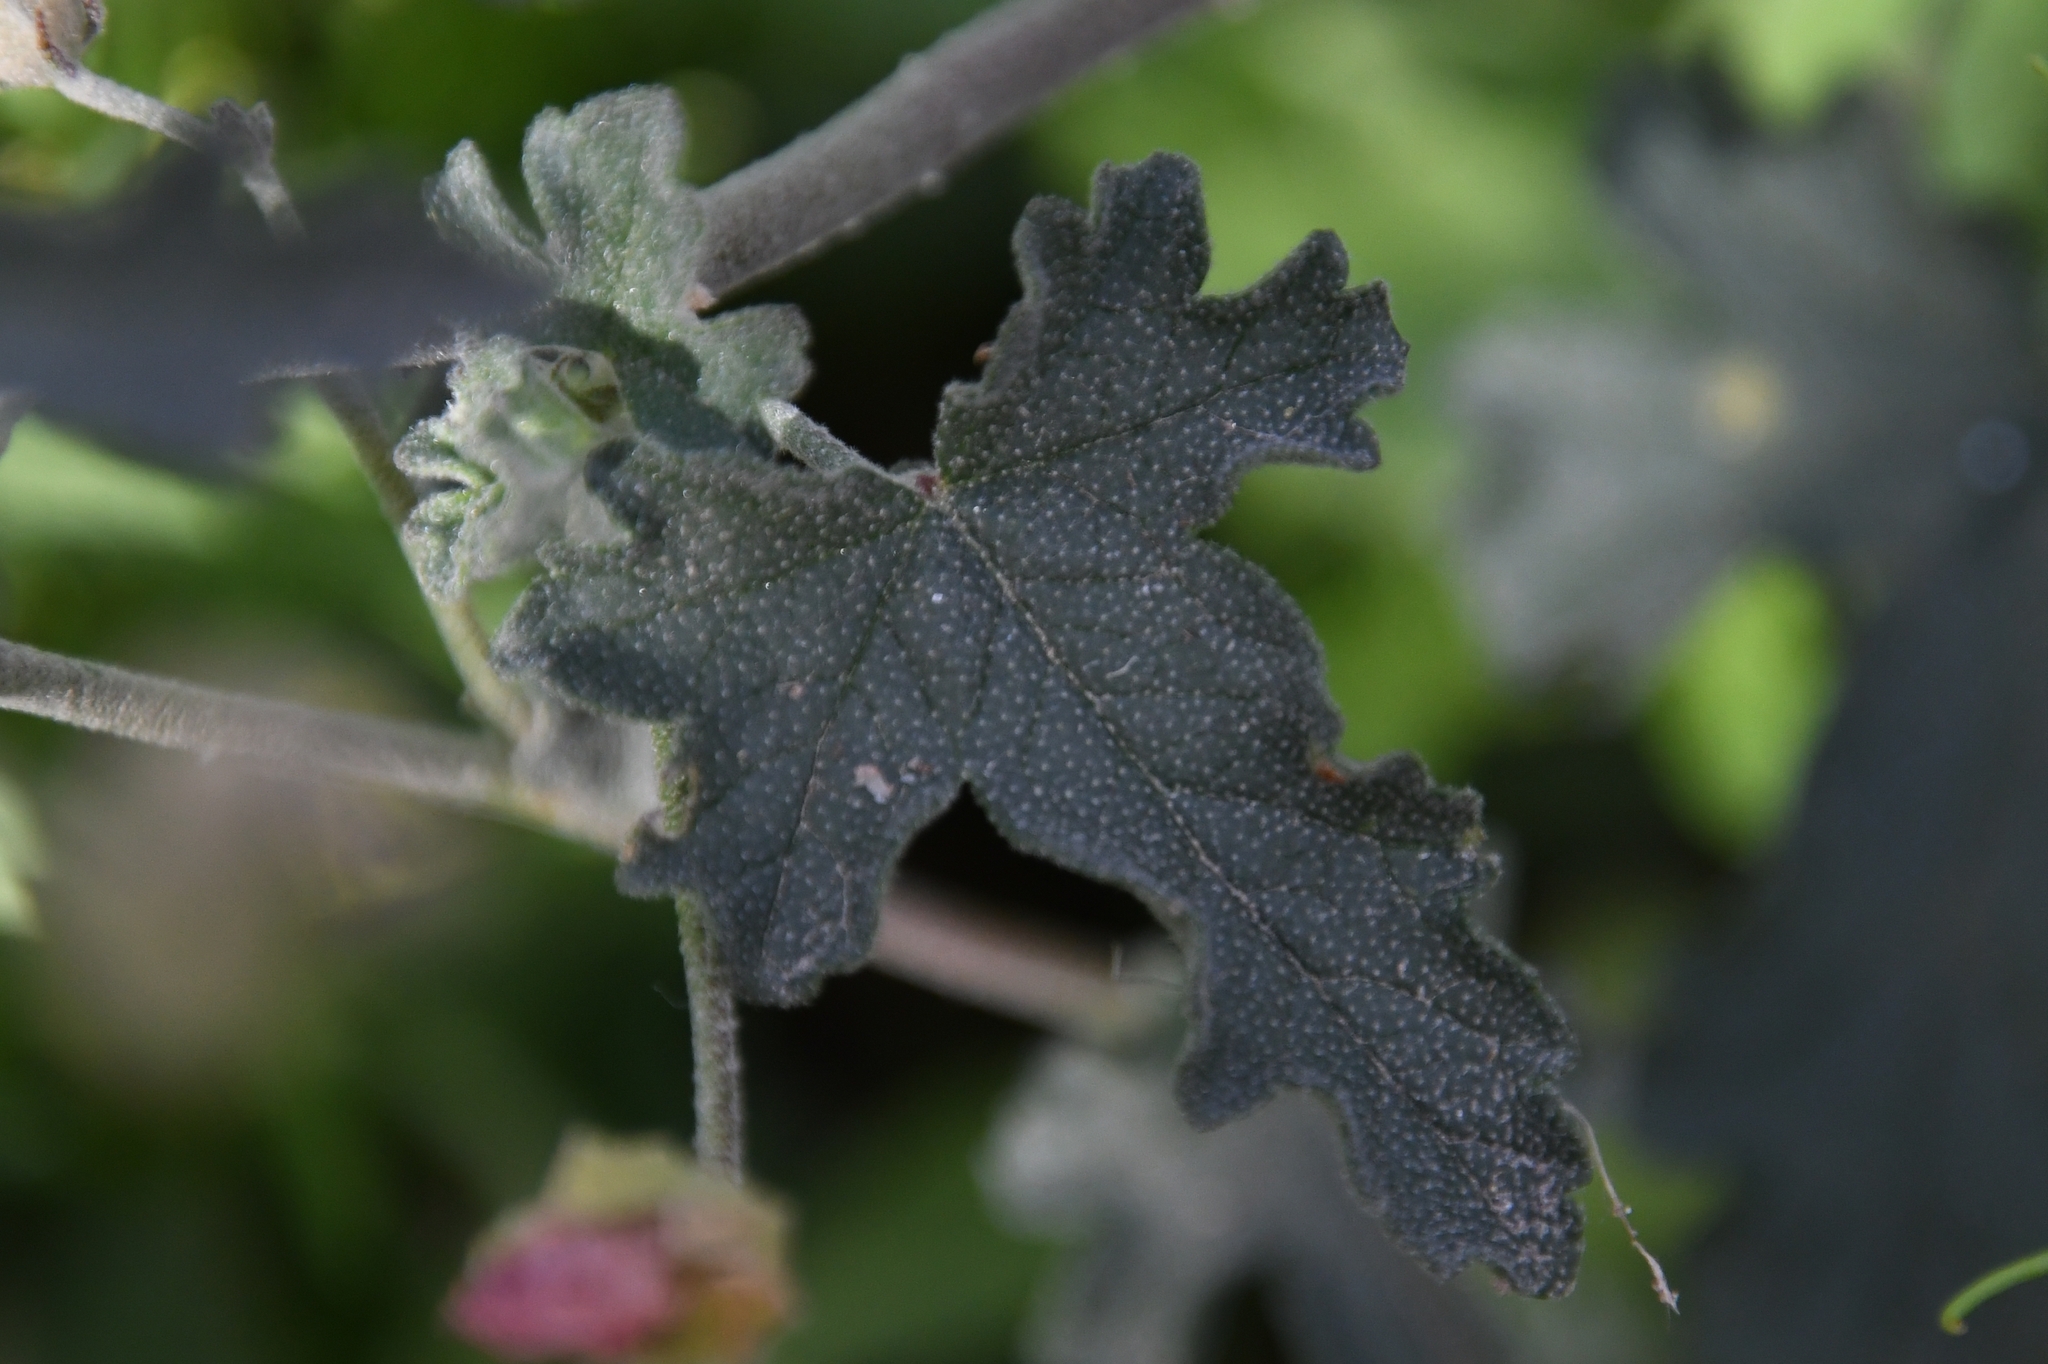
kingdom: Plantae
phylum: Tracheophyta
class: Magnoliopsida
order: Malvales
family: Malvaceae
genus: Sphaeralcea
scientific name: Sphaeralcea laxa
